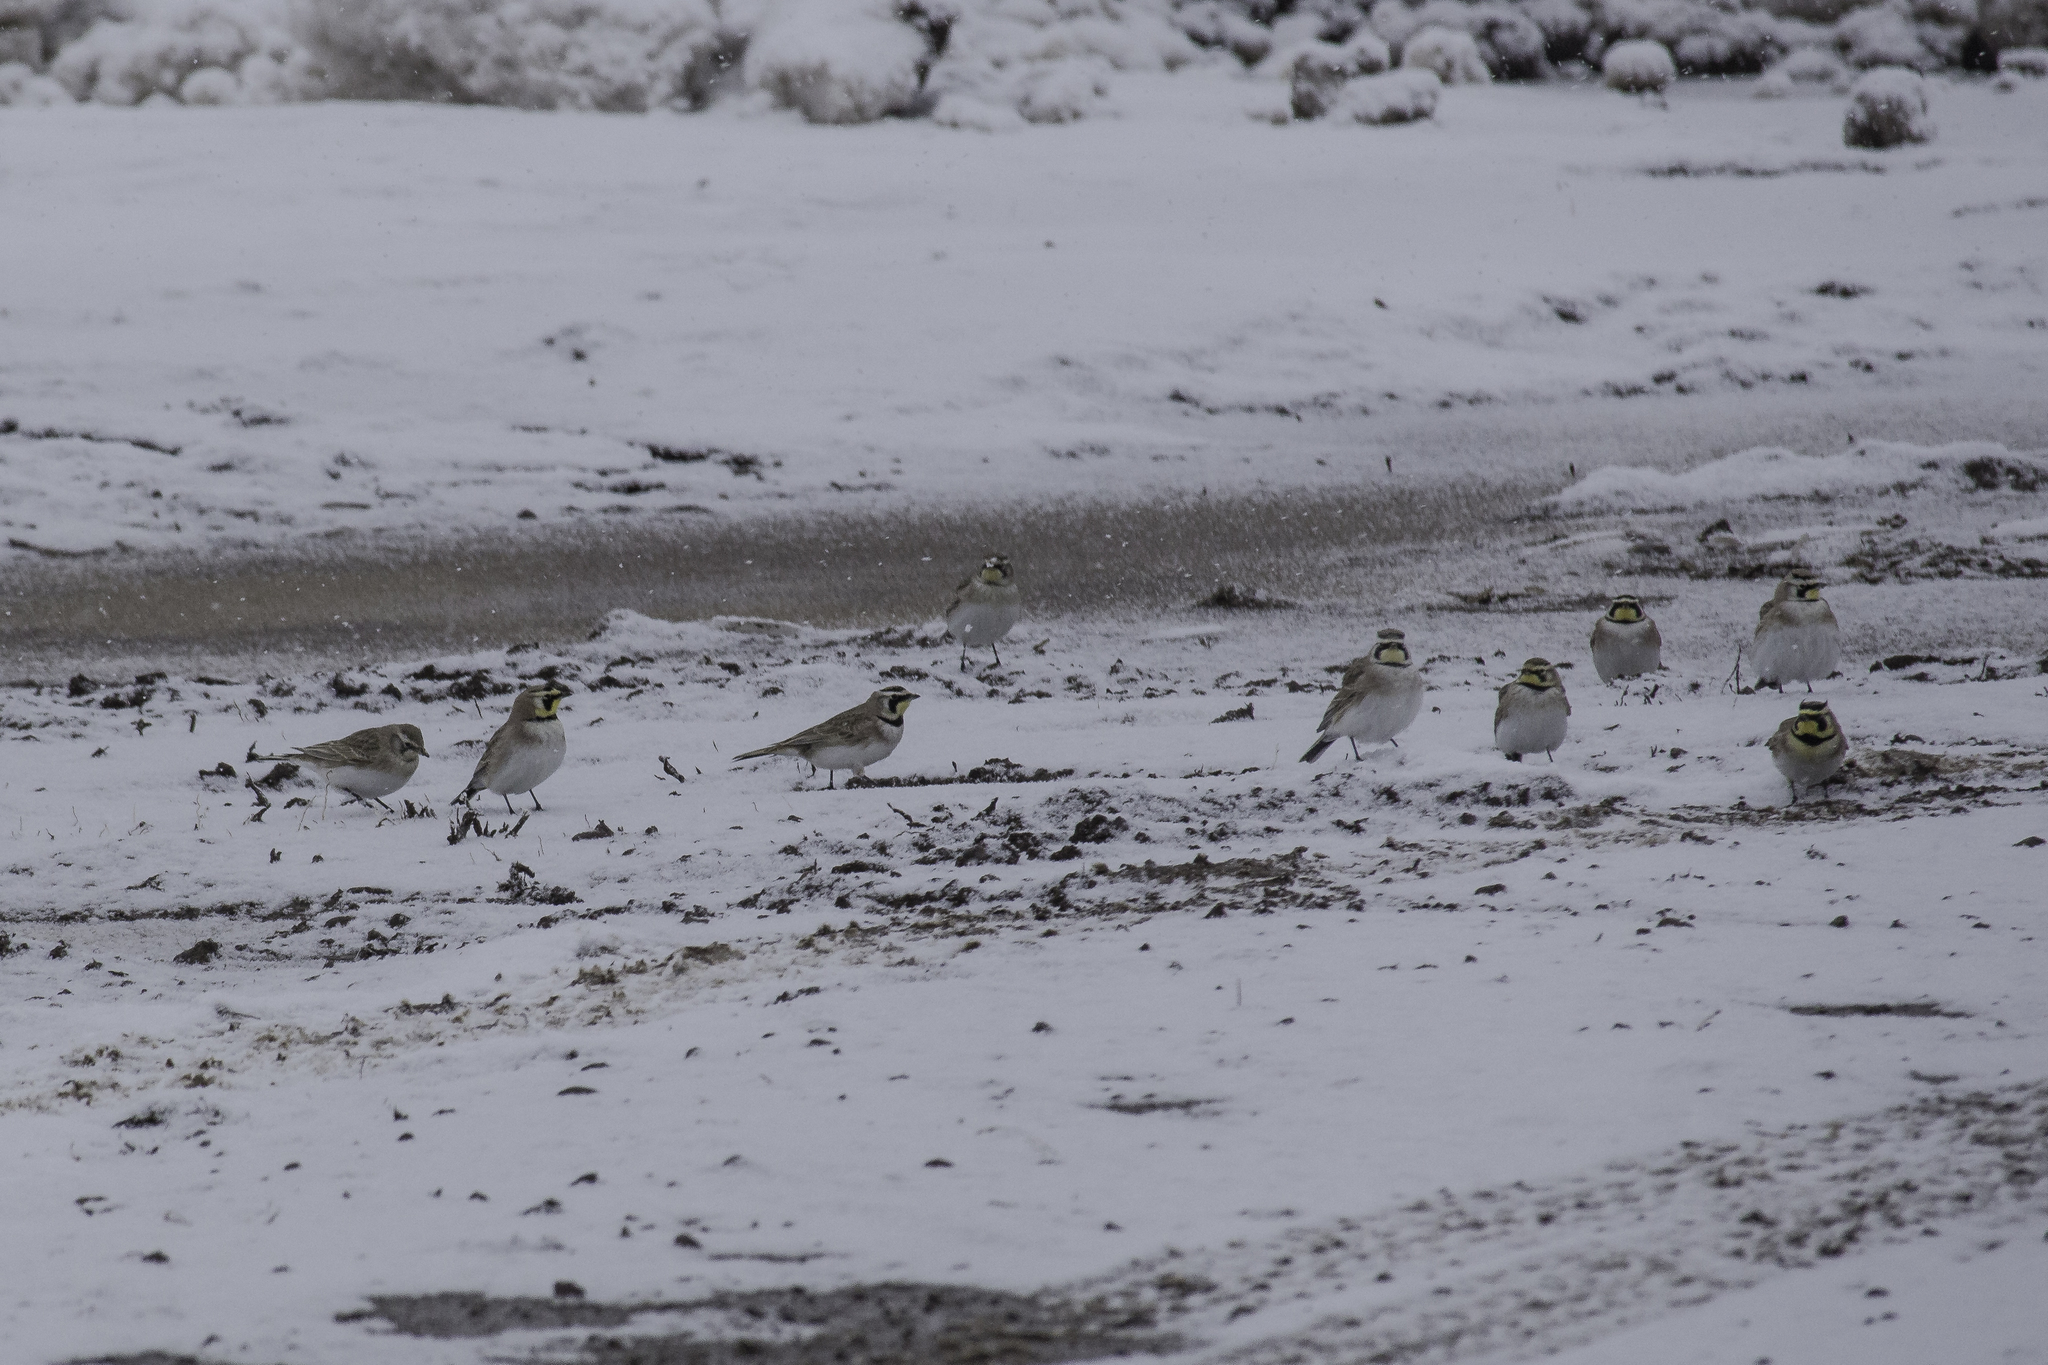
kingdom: Animalia
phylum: Chordata
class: Aves
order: Passeriformes
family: Alaudidae
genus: Eremophila
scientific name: Eremophila alpestris
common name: Horned lark
